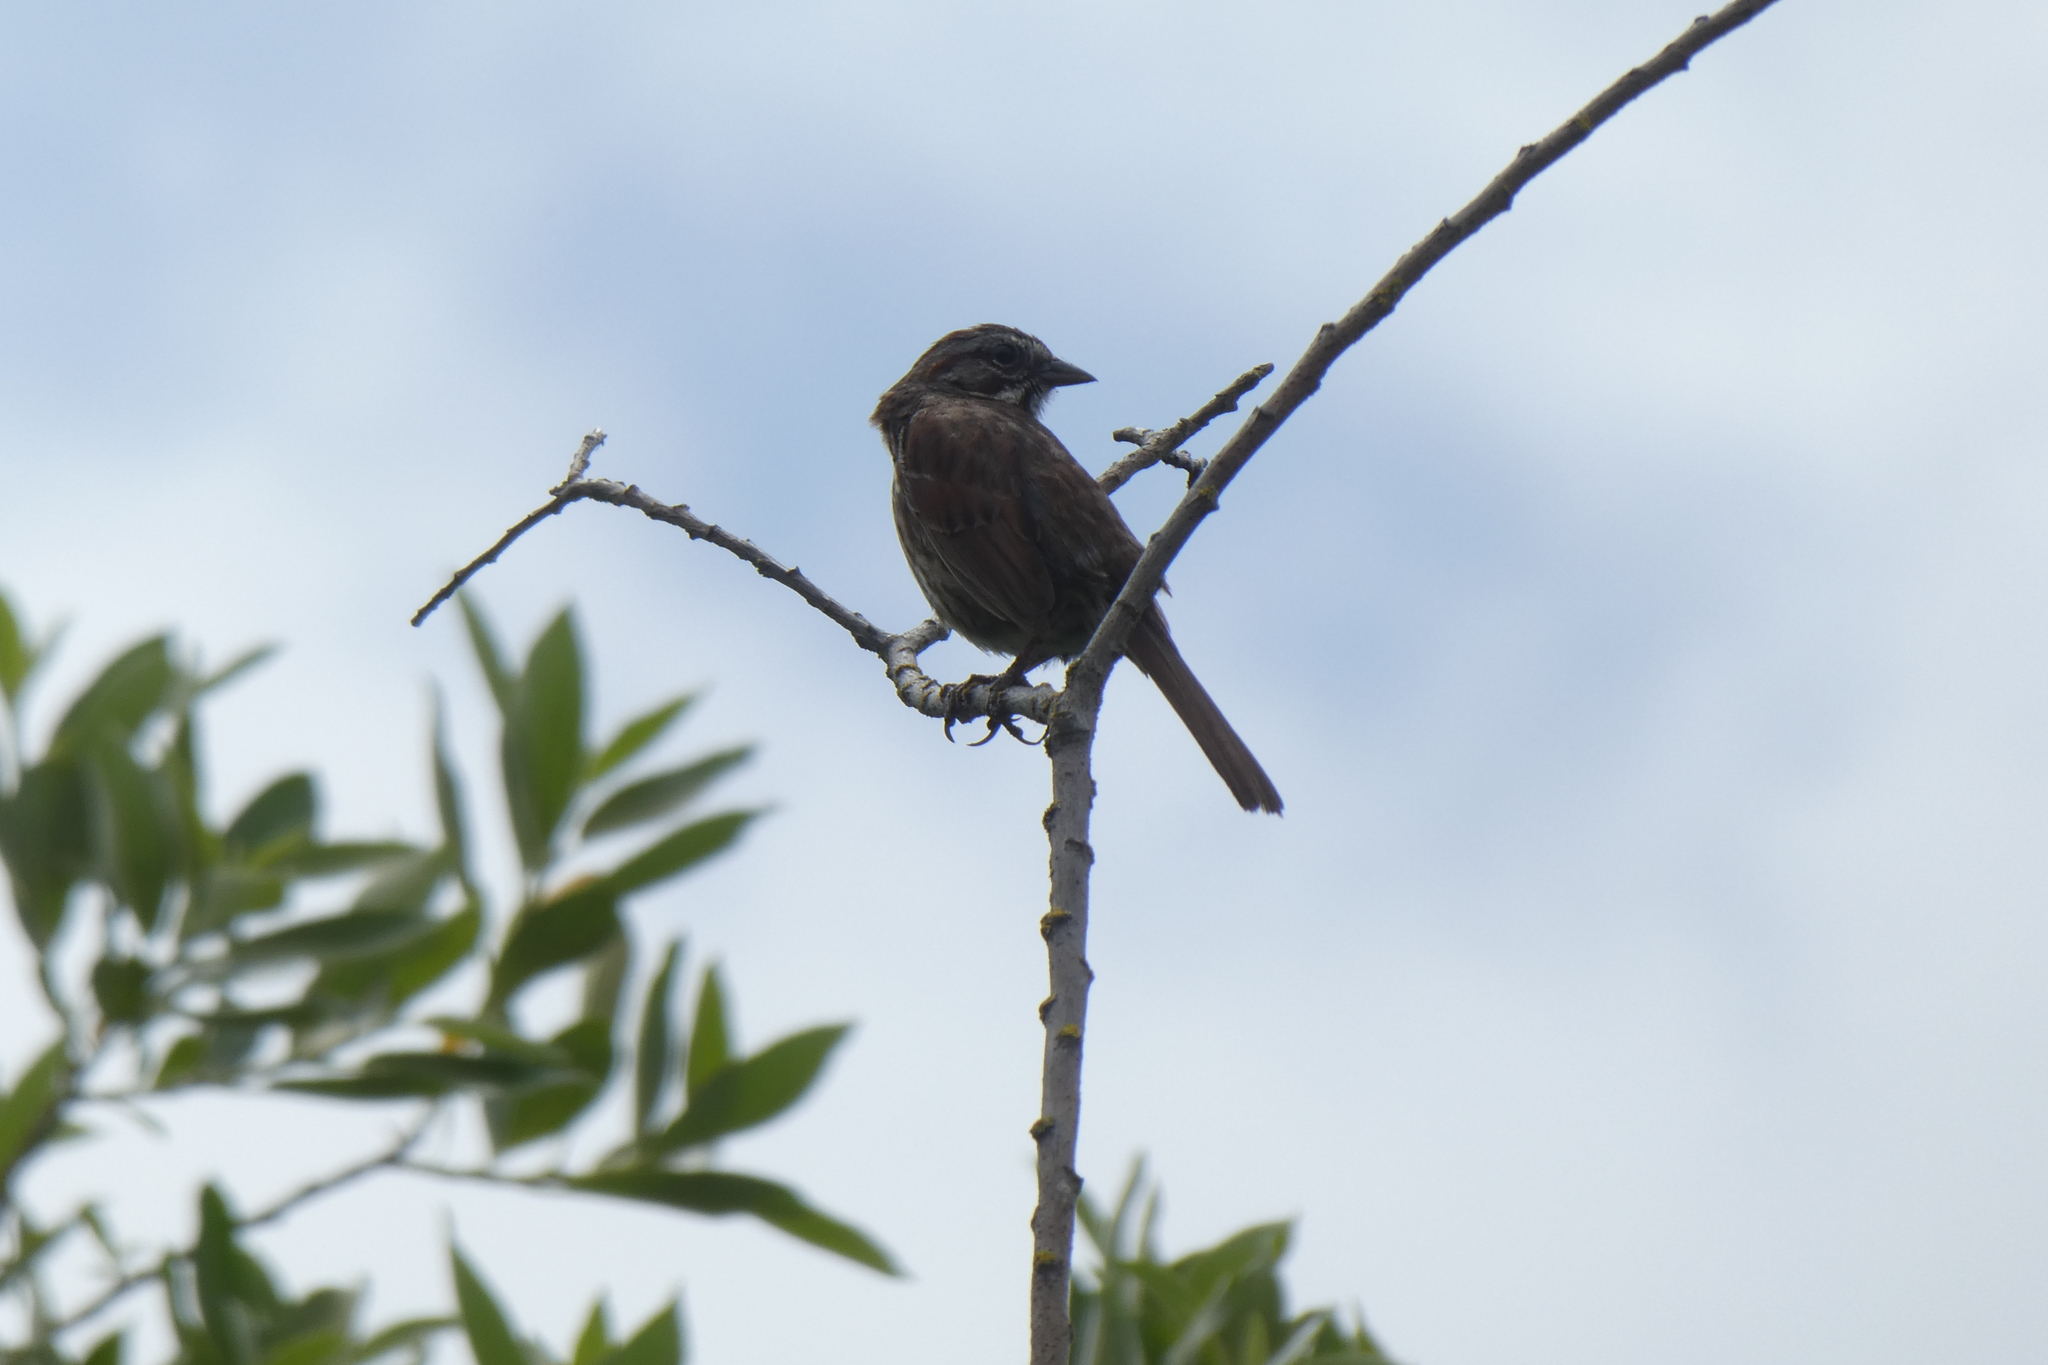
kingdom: Animalia
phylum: Chordata
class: Aves
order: Passeriformes
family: Passerellidae
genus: Melospiza
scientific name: Melospiza melodia
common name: Song sparrow
